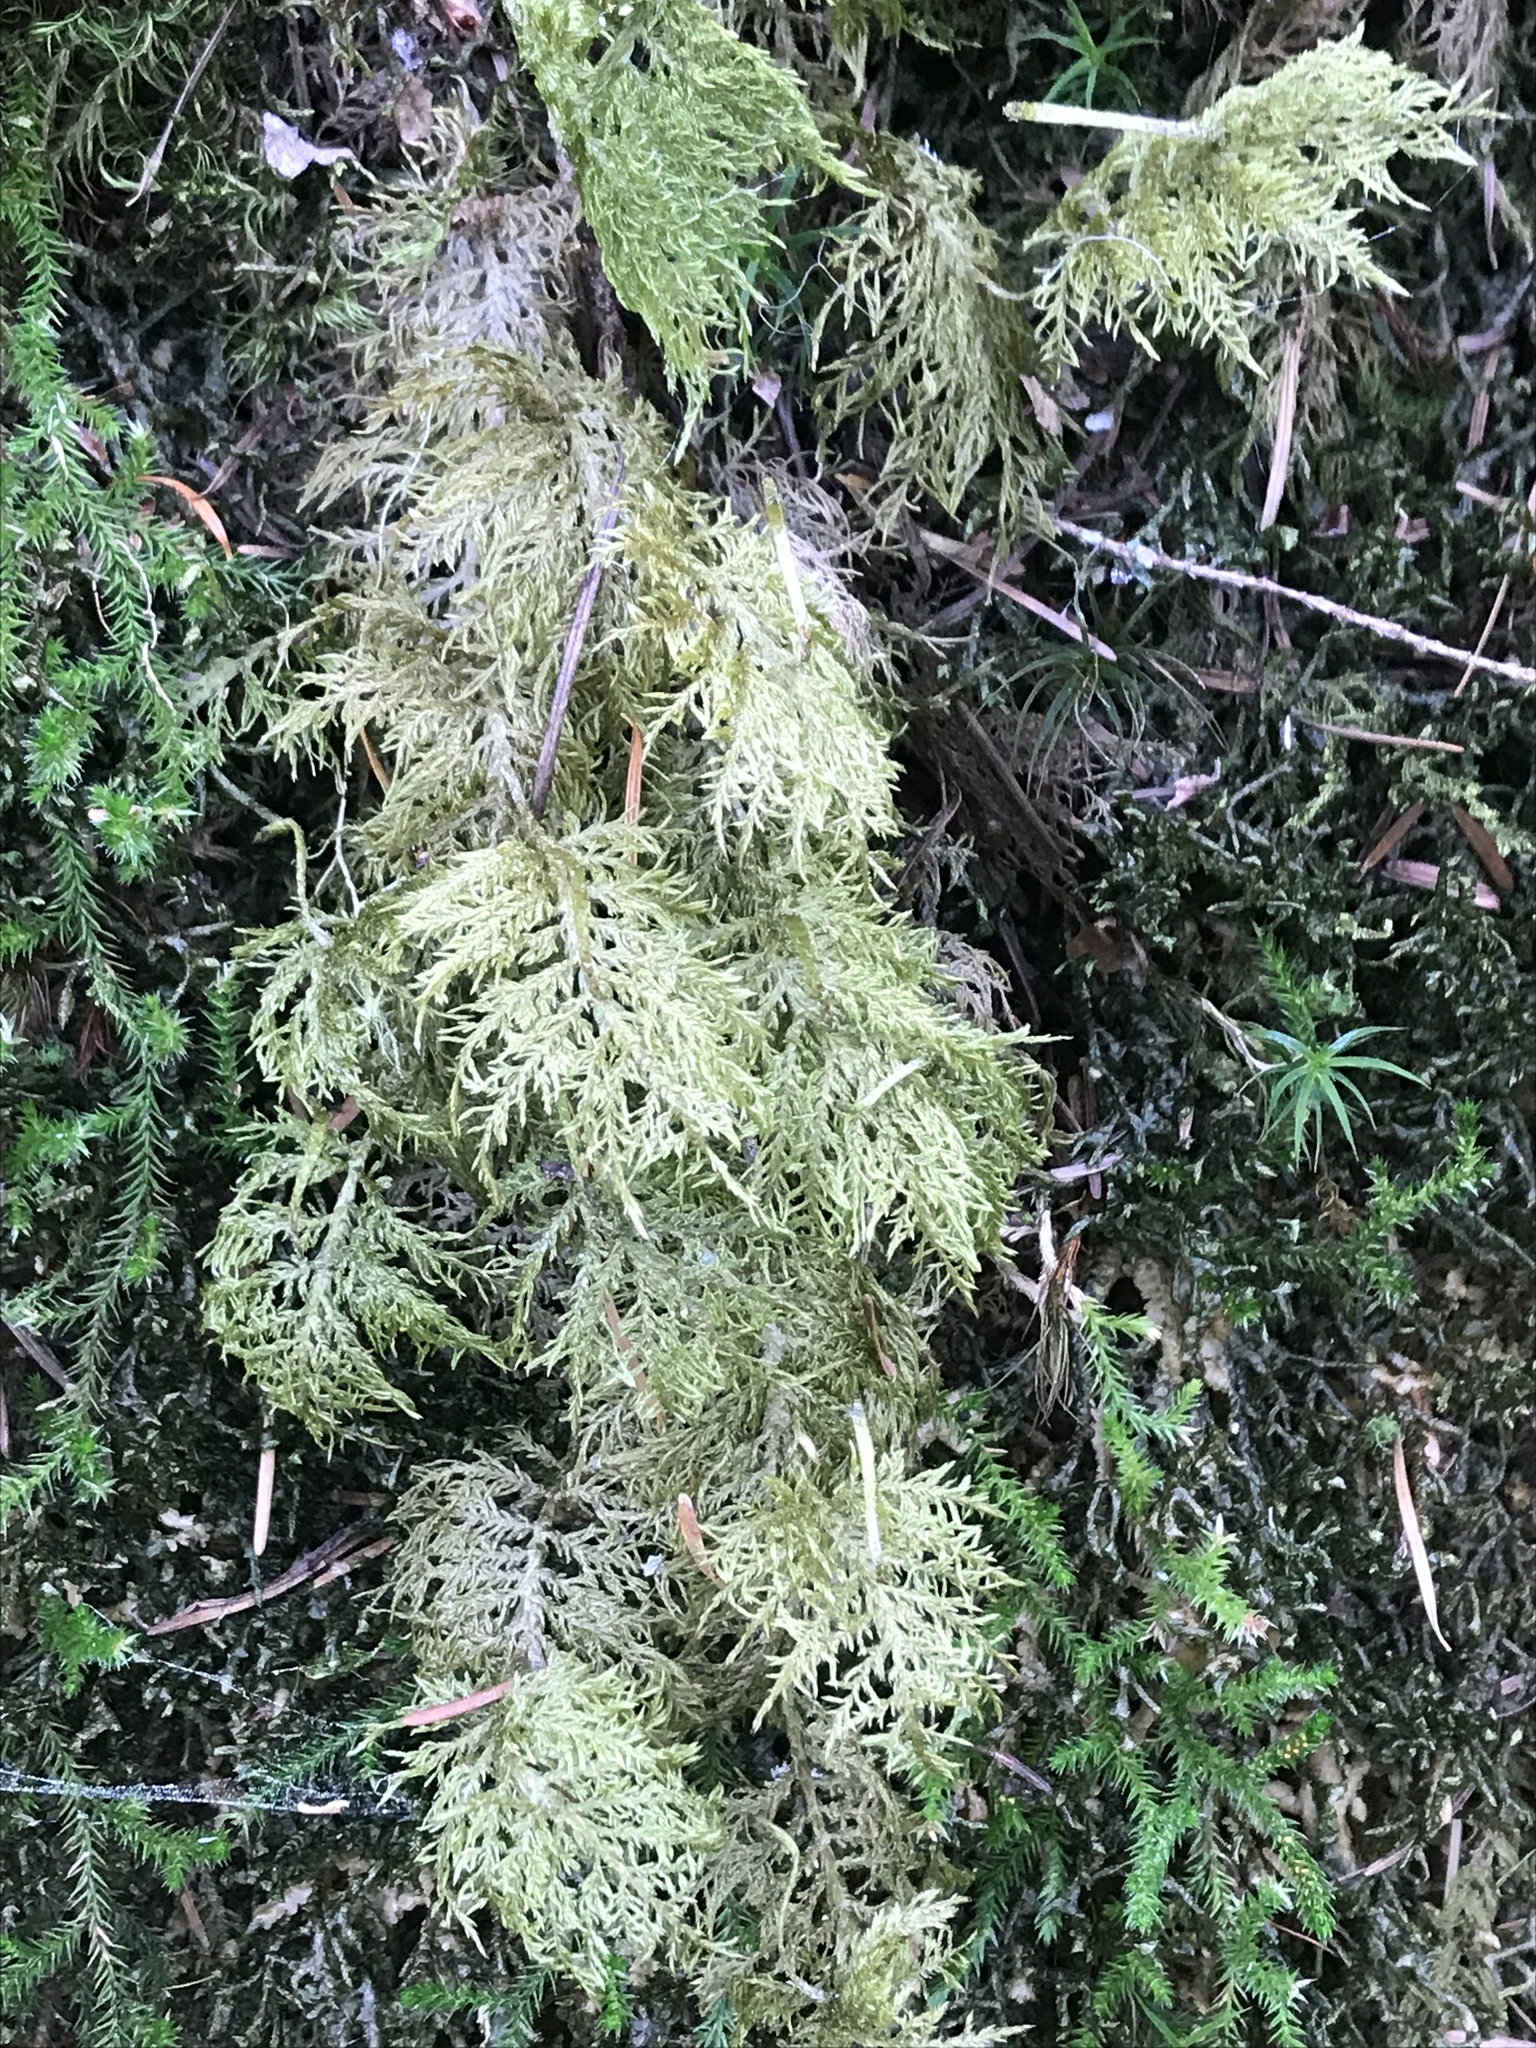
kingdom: Plantae
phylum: Bryophyta
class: Bryopsida
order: Hypnales
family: Hylocomiaceae
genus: Hylocomium
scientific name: Hylocomium splendens
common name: Stairstep moss
